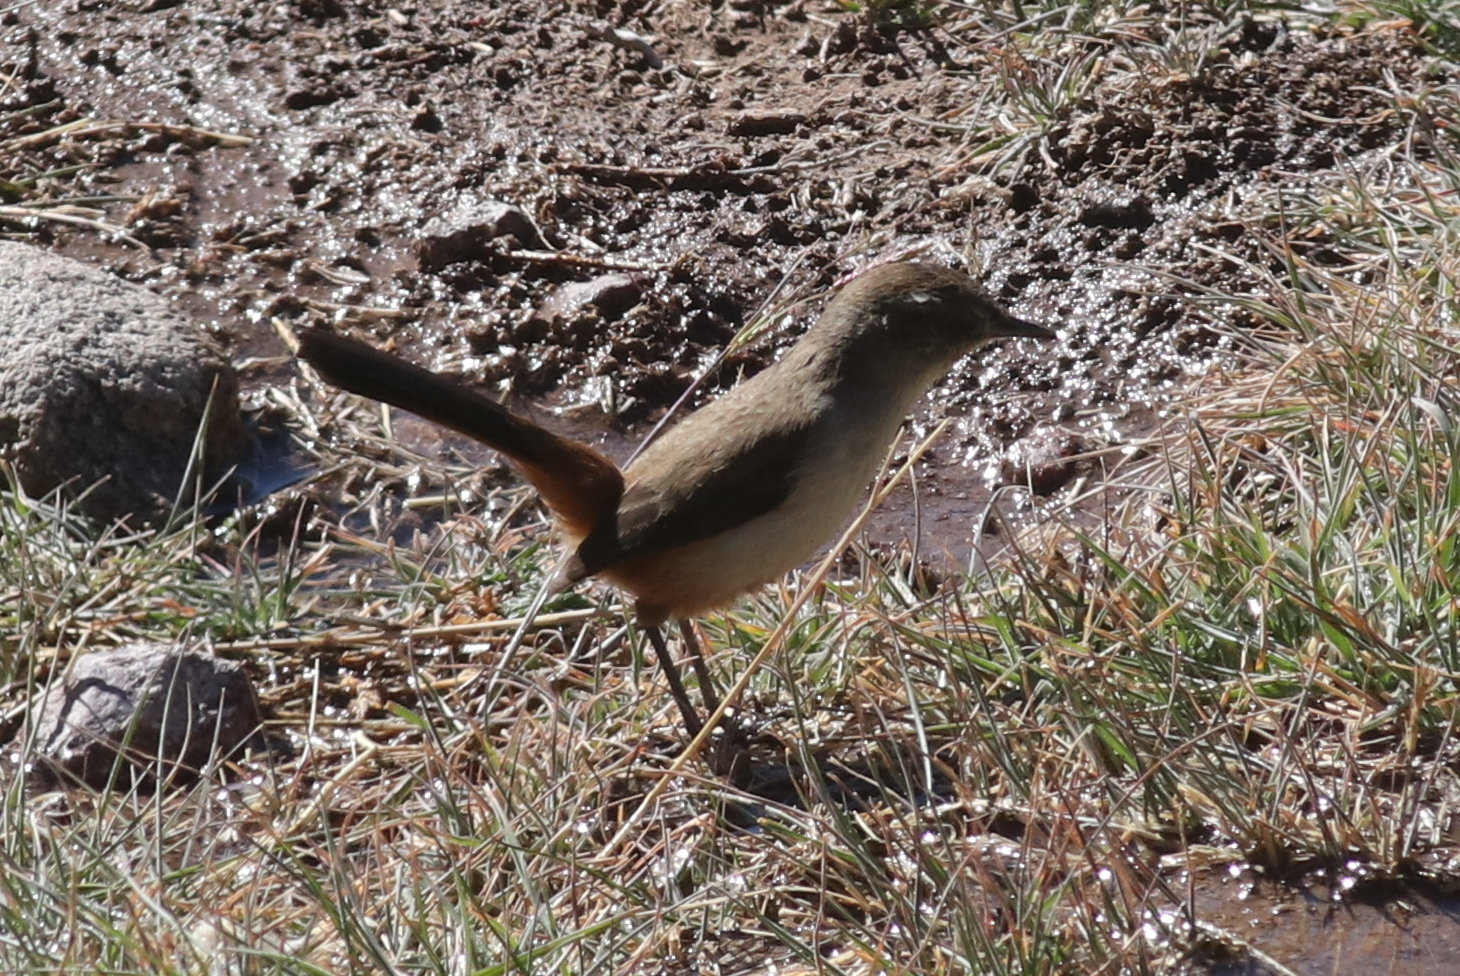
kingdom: Animalia
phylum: Chordata
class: Aves
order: Passeriformes
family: Furnariidae
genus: Asthenes
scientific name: Asthenes dorbignyi
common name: Rusty-vented canastero
